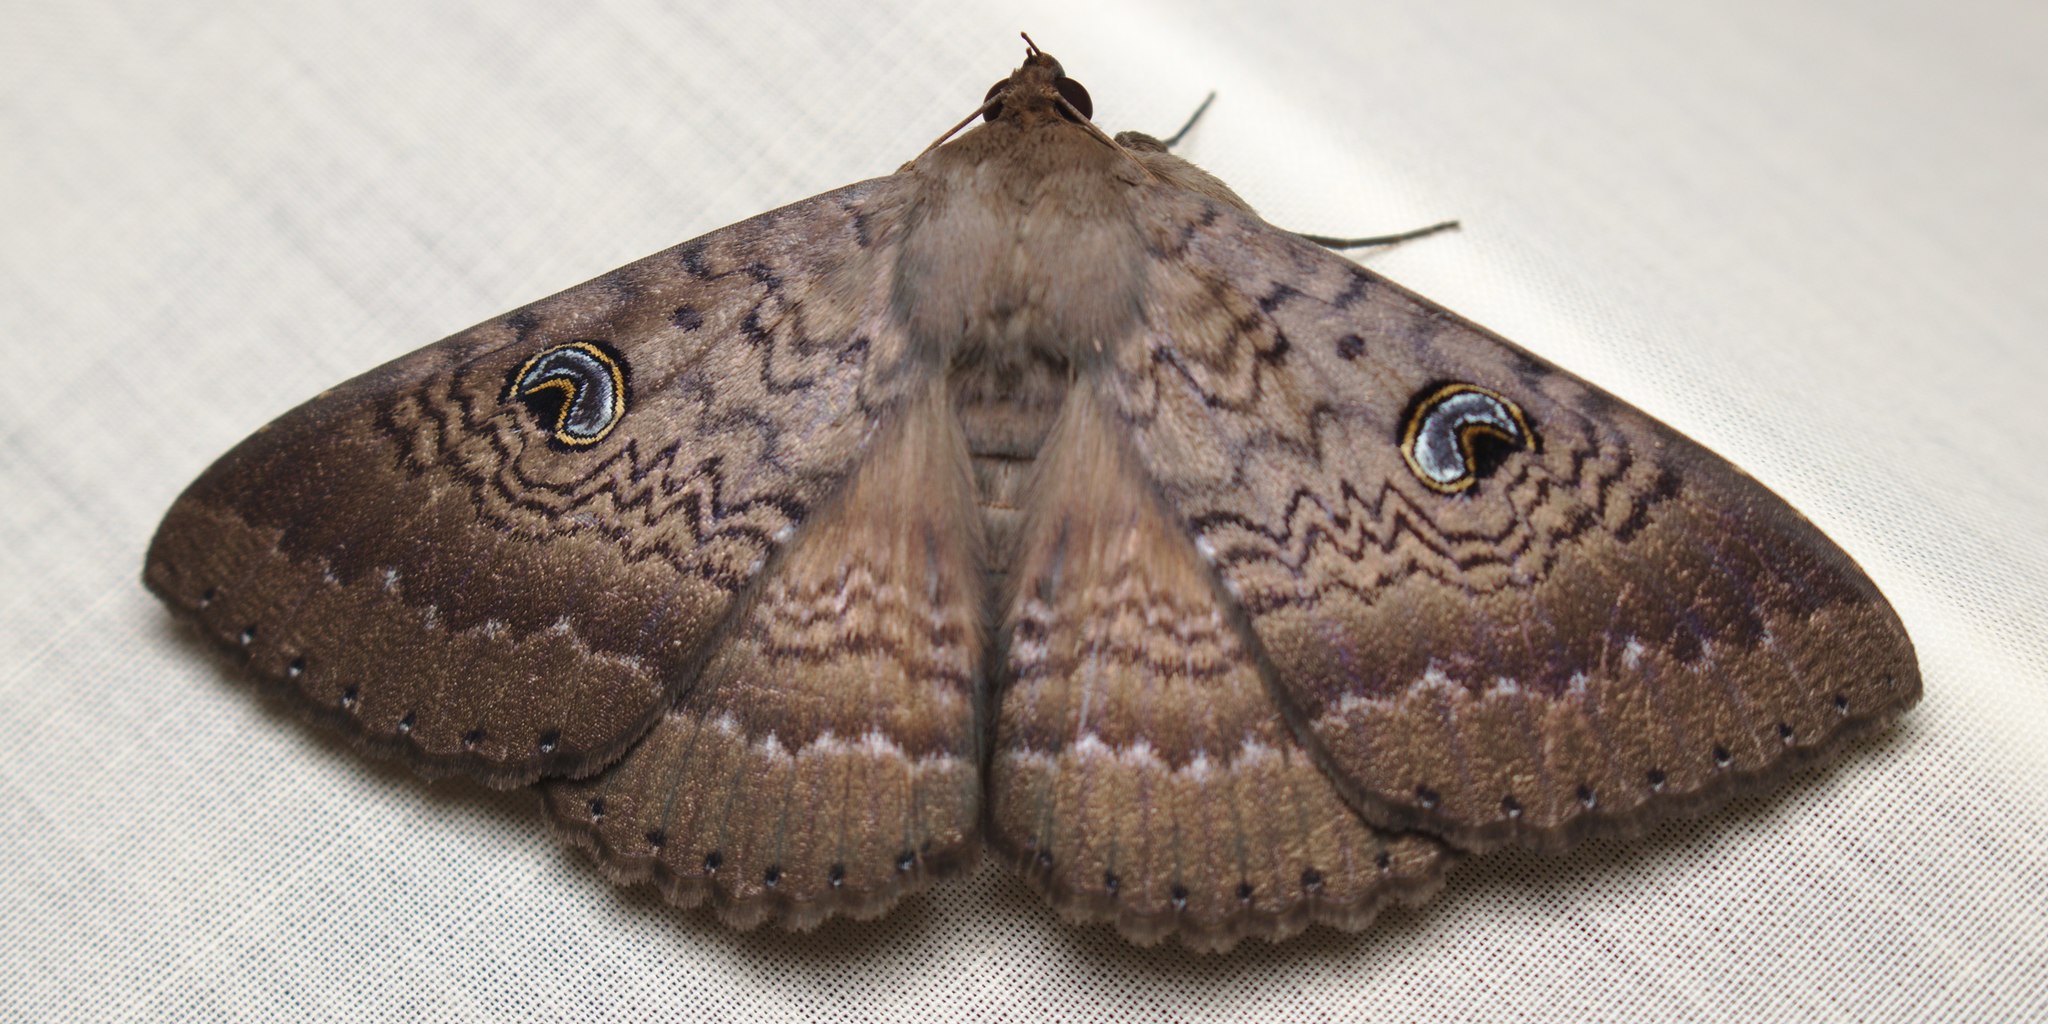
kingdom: Animalia
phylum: Arthropoda
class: Insecta
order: Lepidoptera
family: Erebidae
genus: Dasypodia
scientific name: Dasypodia cymatodes
